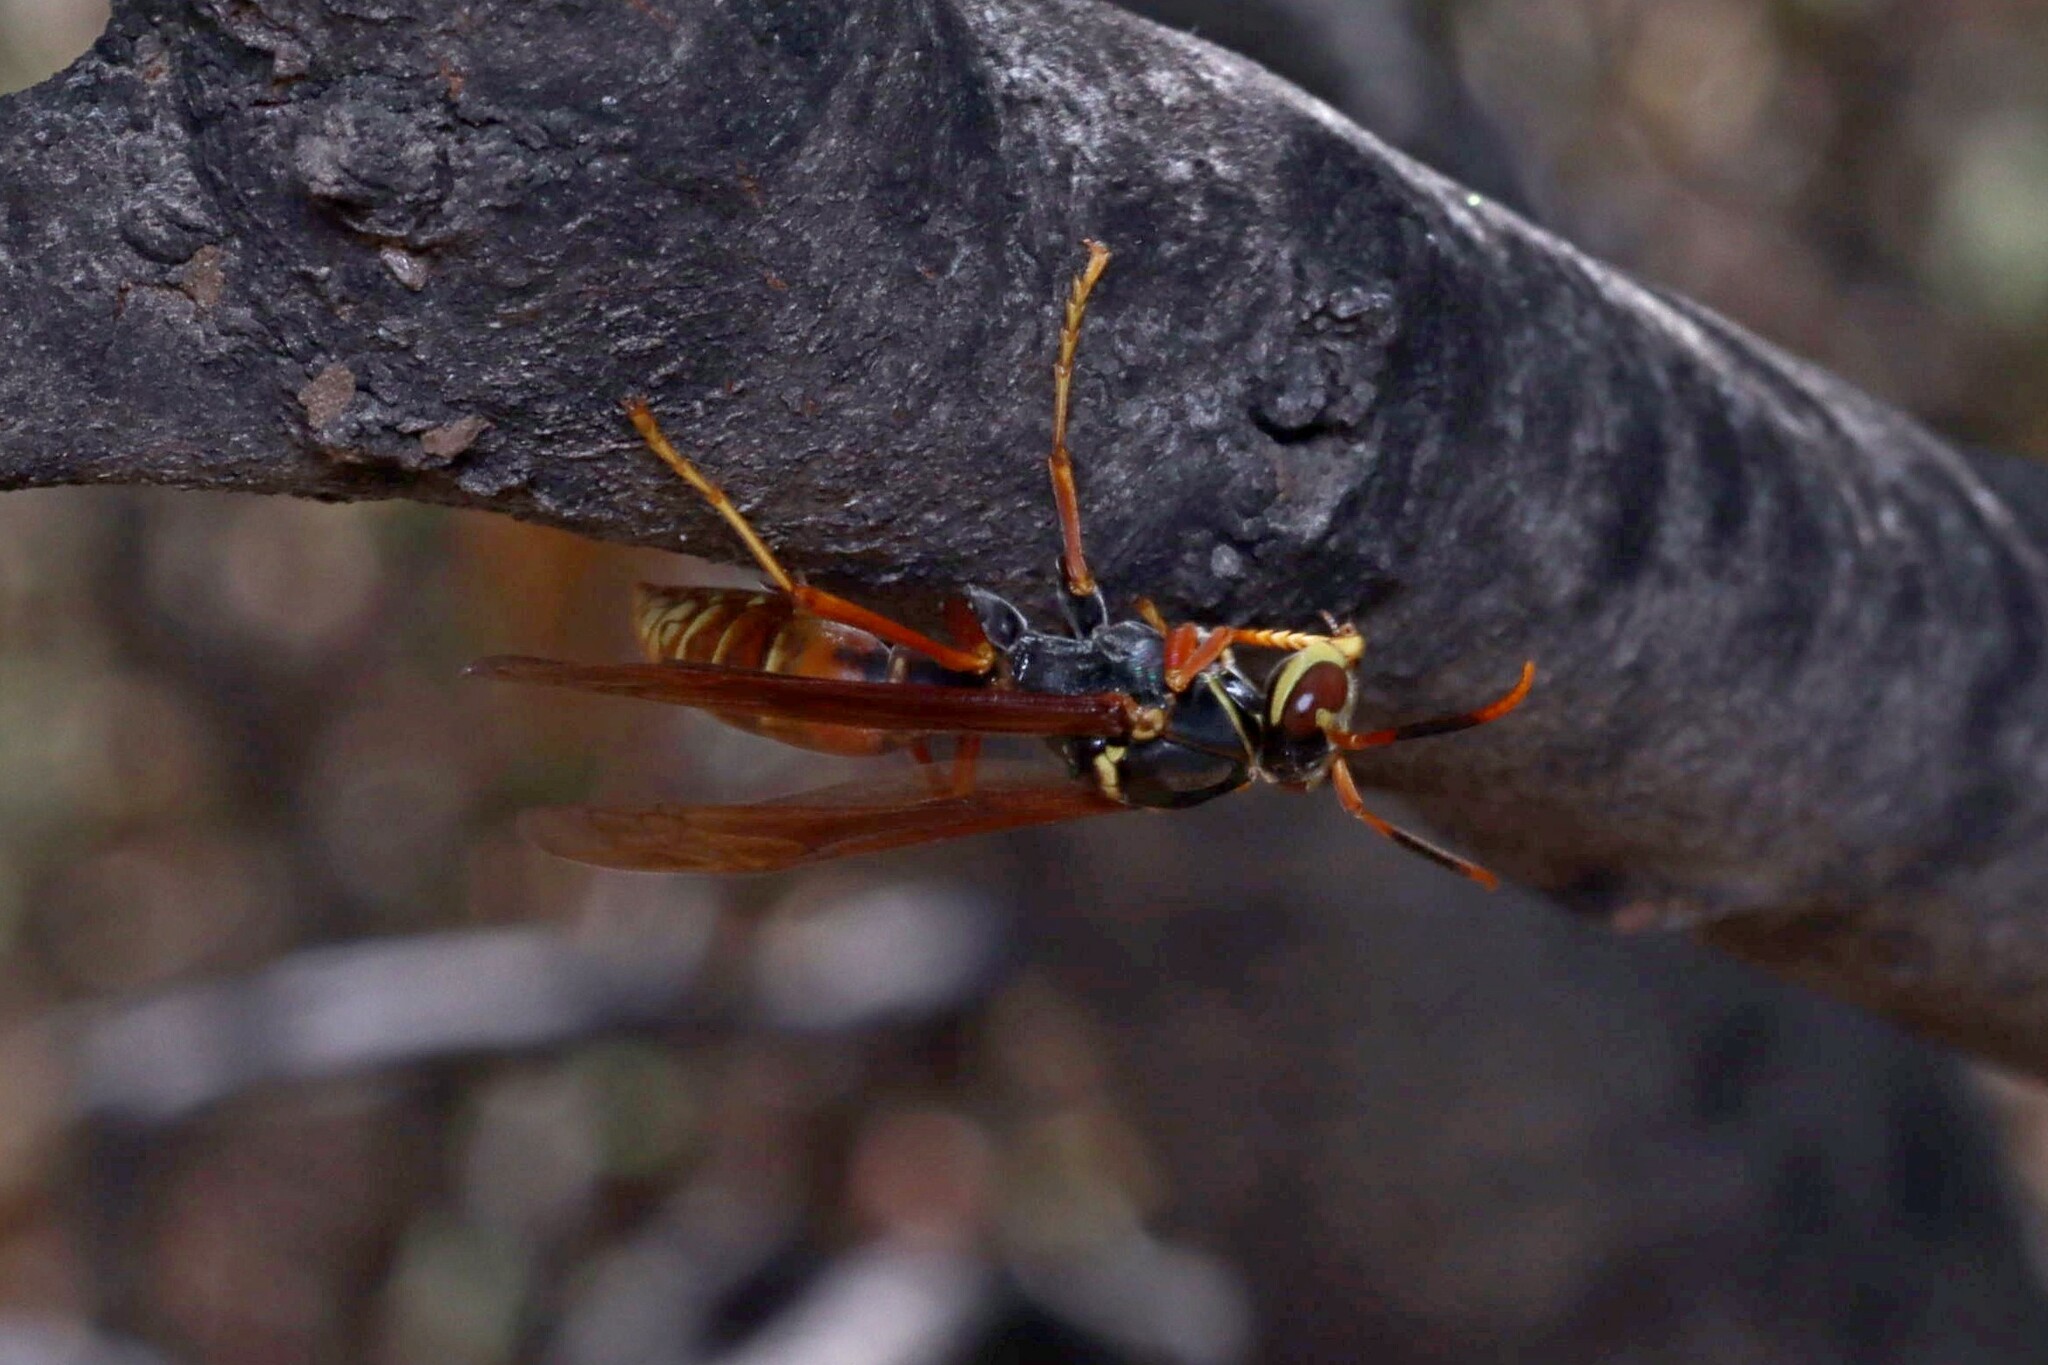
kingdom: Animalia
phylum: Arthropoda
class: Insecta
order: Hymenoptera
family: Eumenidae
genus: Polistes
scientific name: Polistes buyssoni
